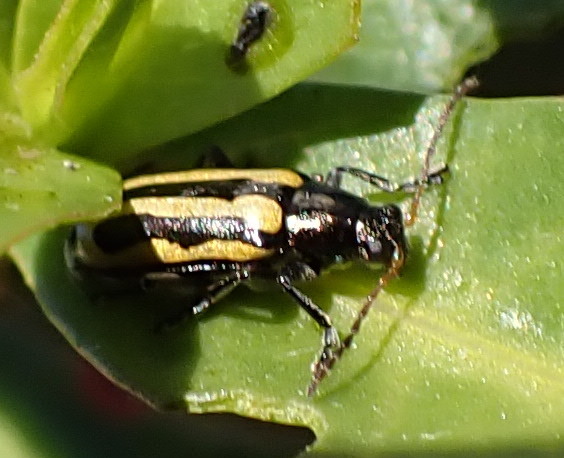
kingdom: Animalia
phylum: Arthropoda
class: Insecta
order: Coleoptera
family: Chrysomelidae
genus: Agasicles
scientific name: Agasicles hygrophila
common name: Alligatorweed flea beetle
